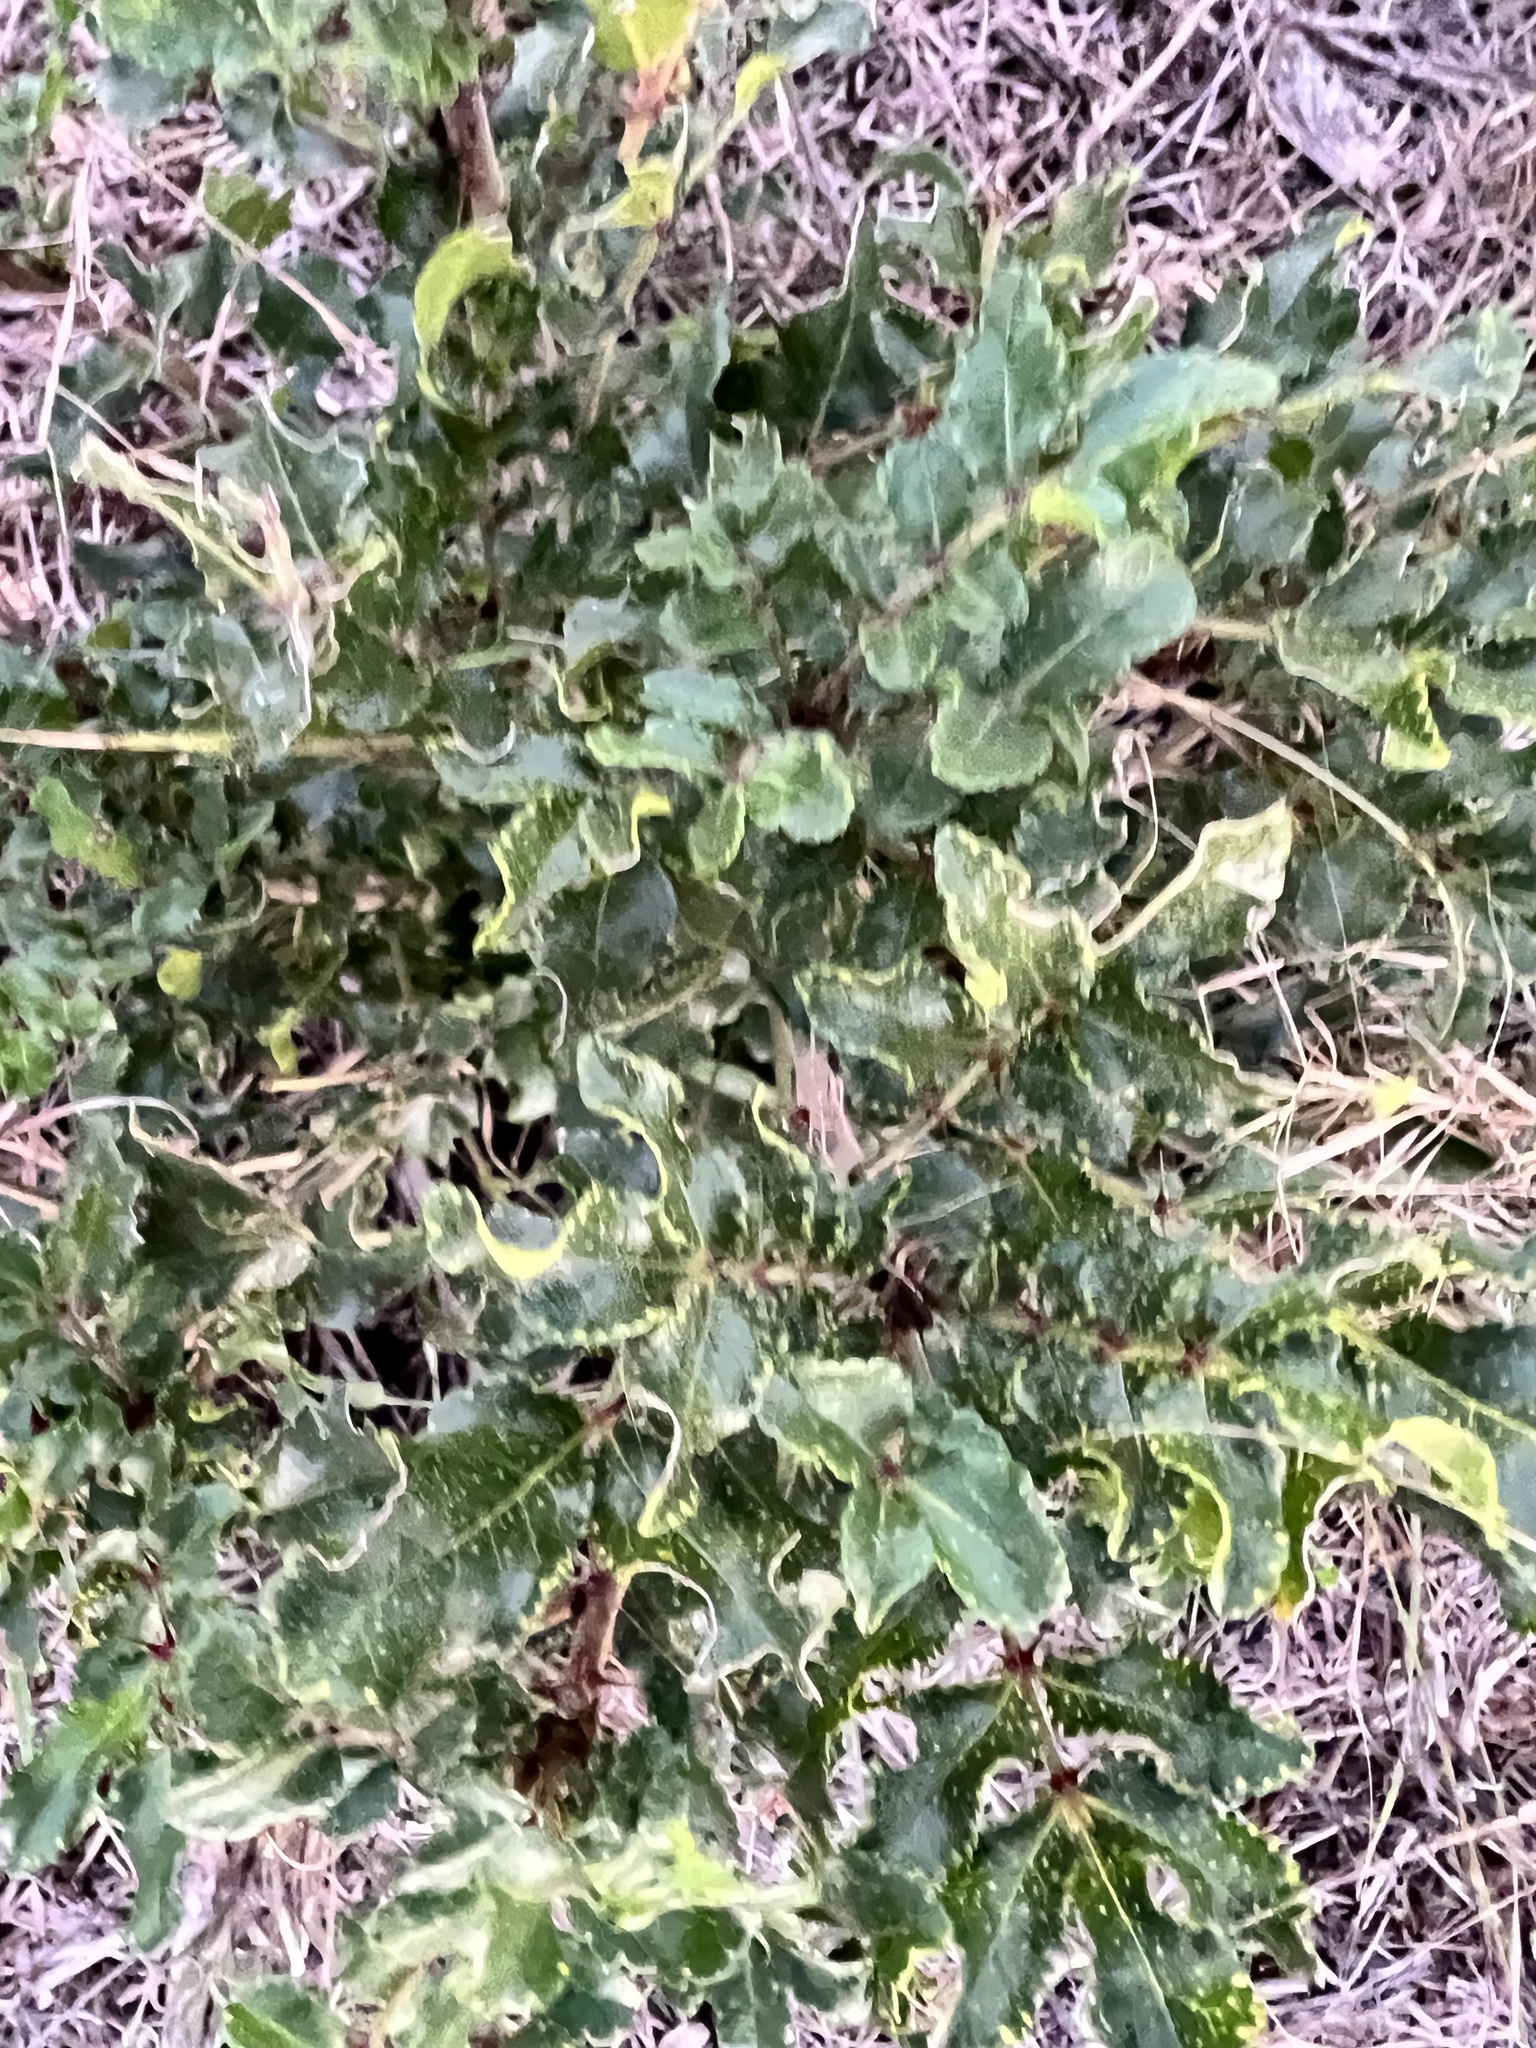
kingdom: Plantae
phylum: Tracheophyta
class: Magnoliopsida
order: Sapindales
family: Rutaceae
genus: Zanthoxylum
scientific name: Zanthoxylum clava-herculis
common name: Hercules'-club
